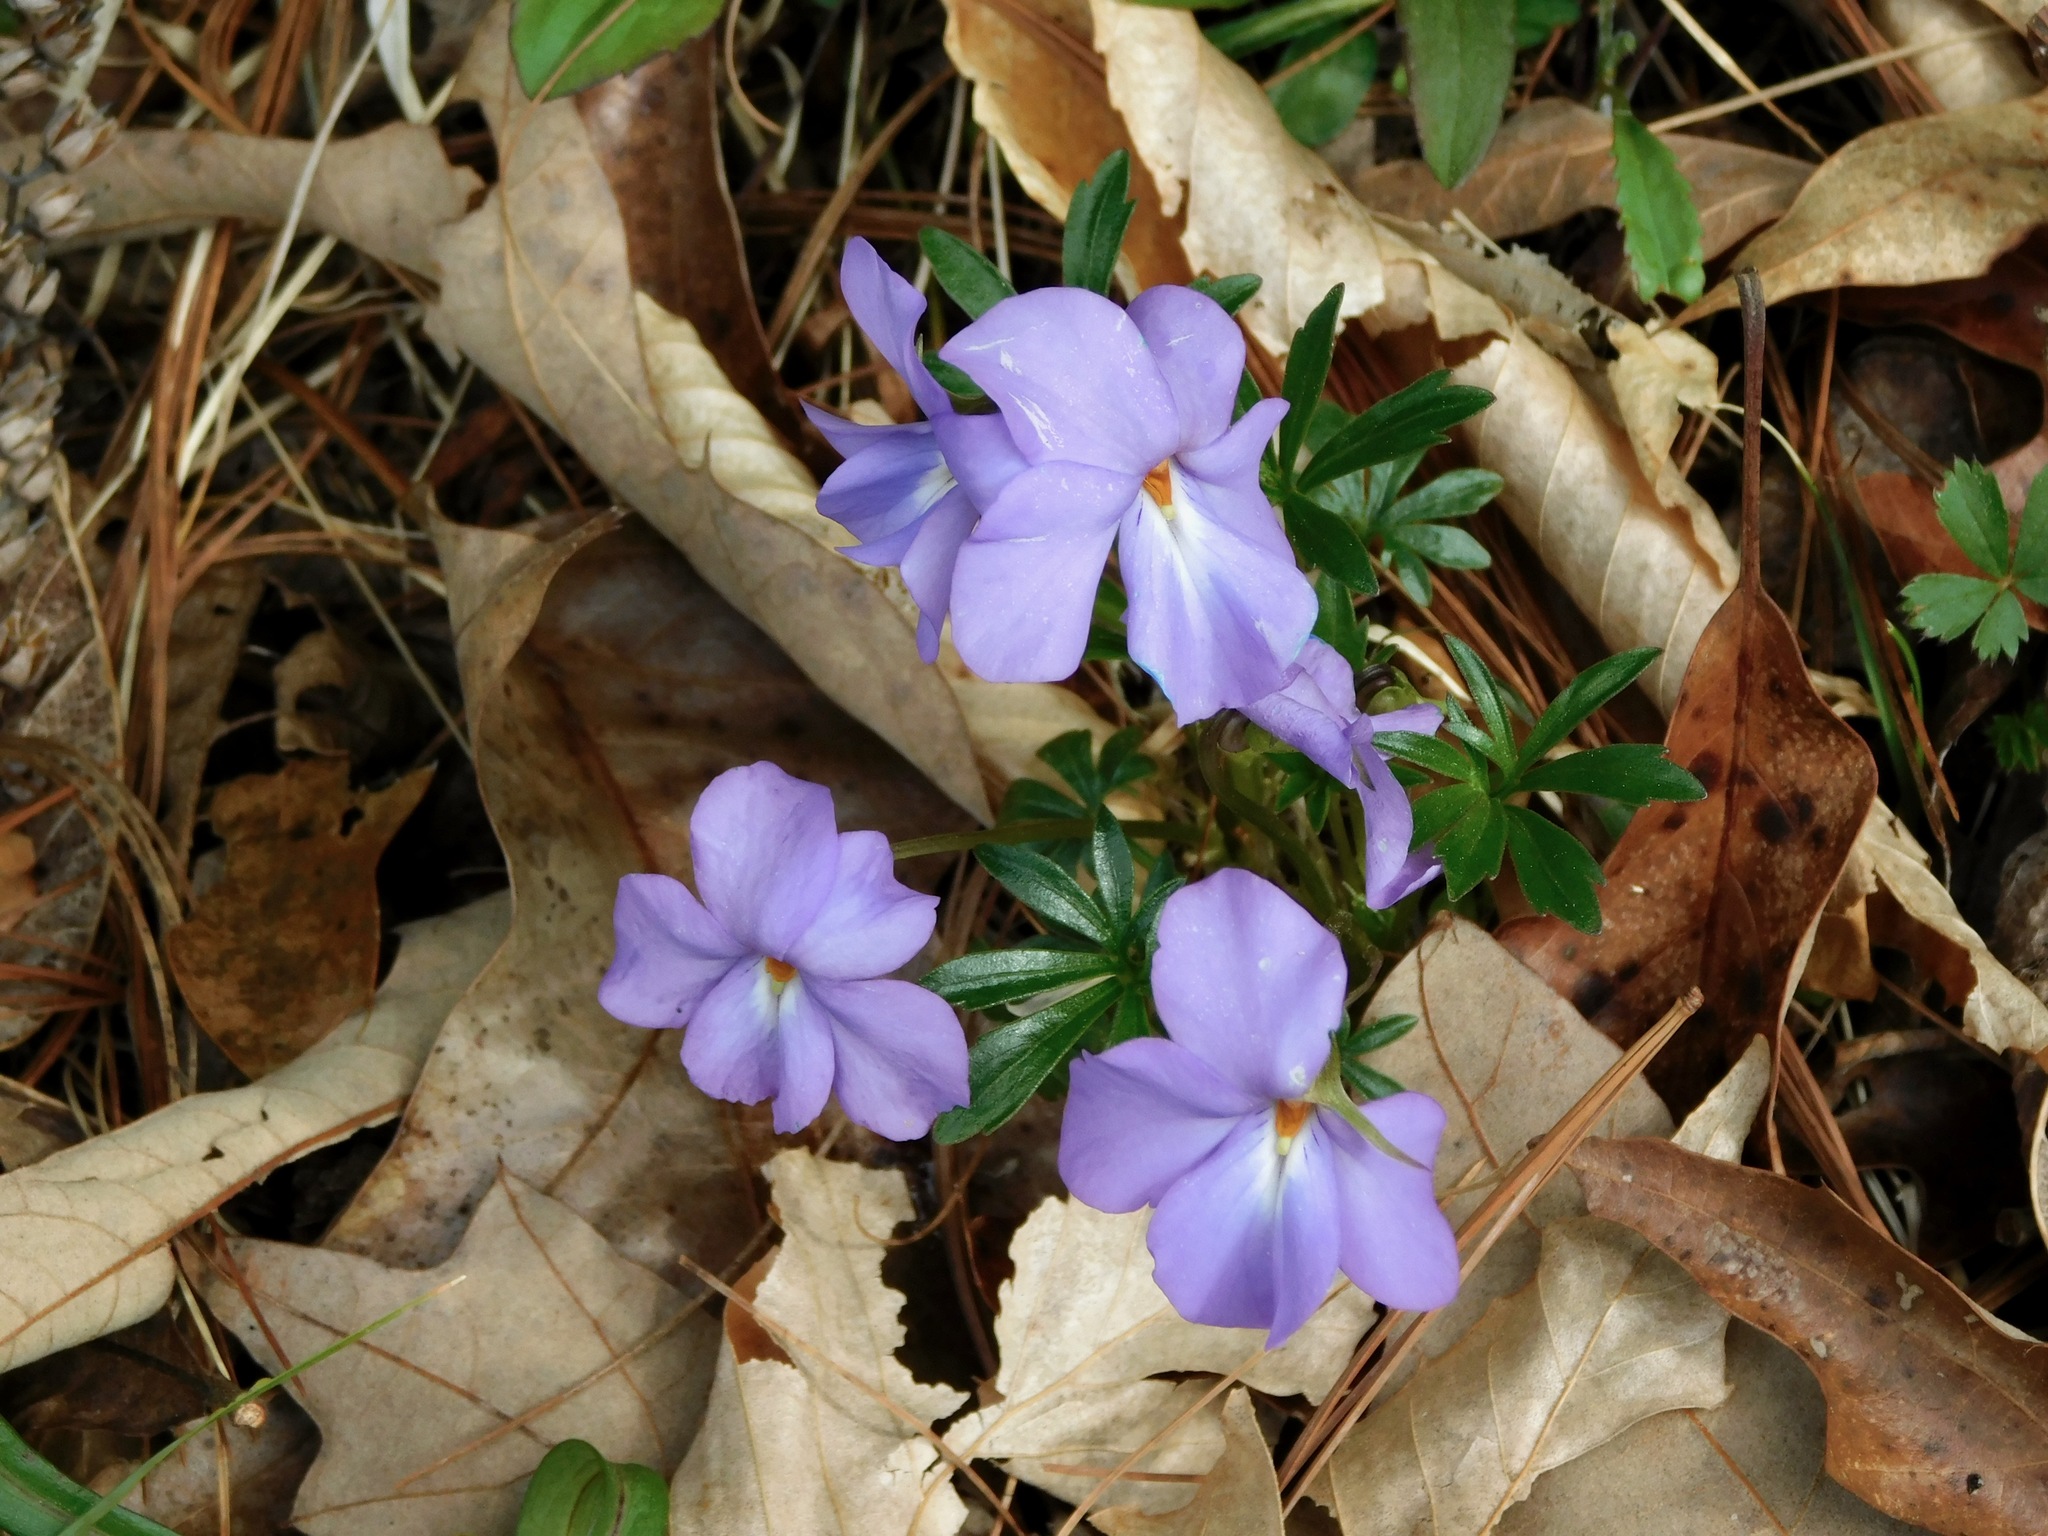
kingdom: Plantae
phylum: Tracheophyta
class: Magnoliopsida
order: Malpighiales
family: Violaceae
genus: Viola
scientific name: Viola pedata
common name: Pansy violet
